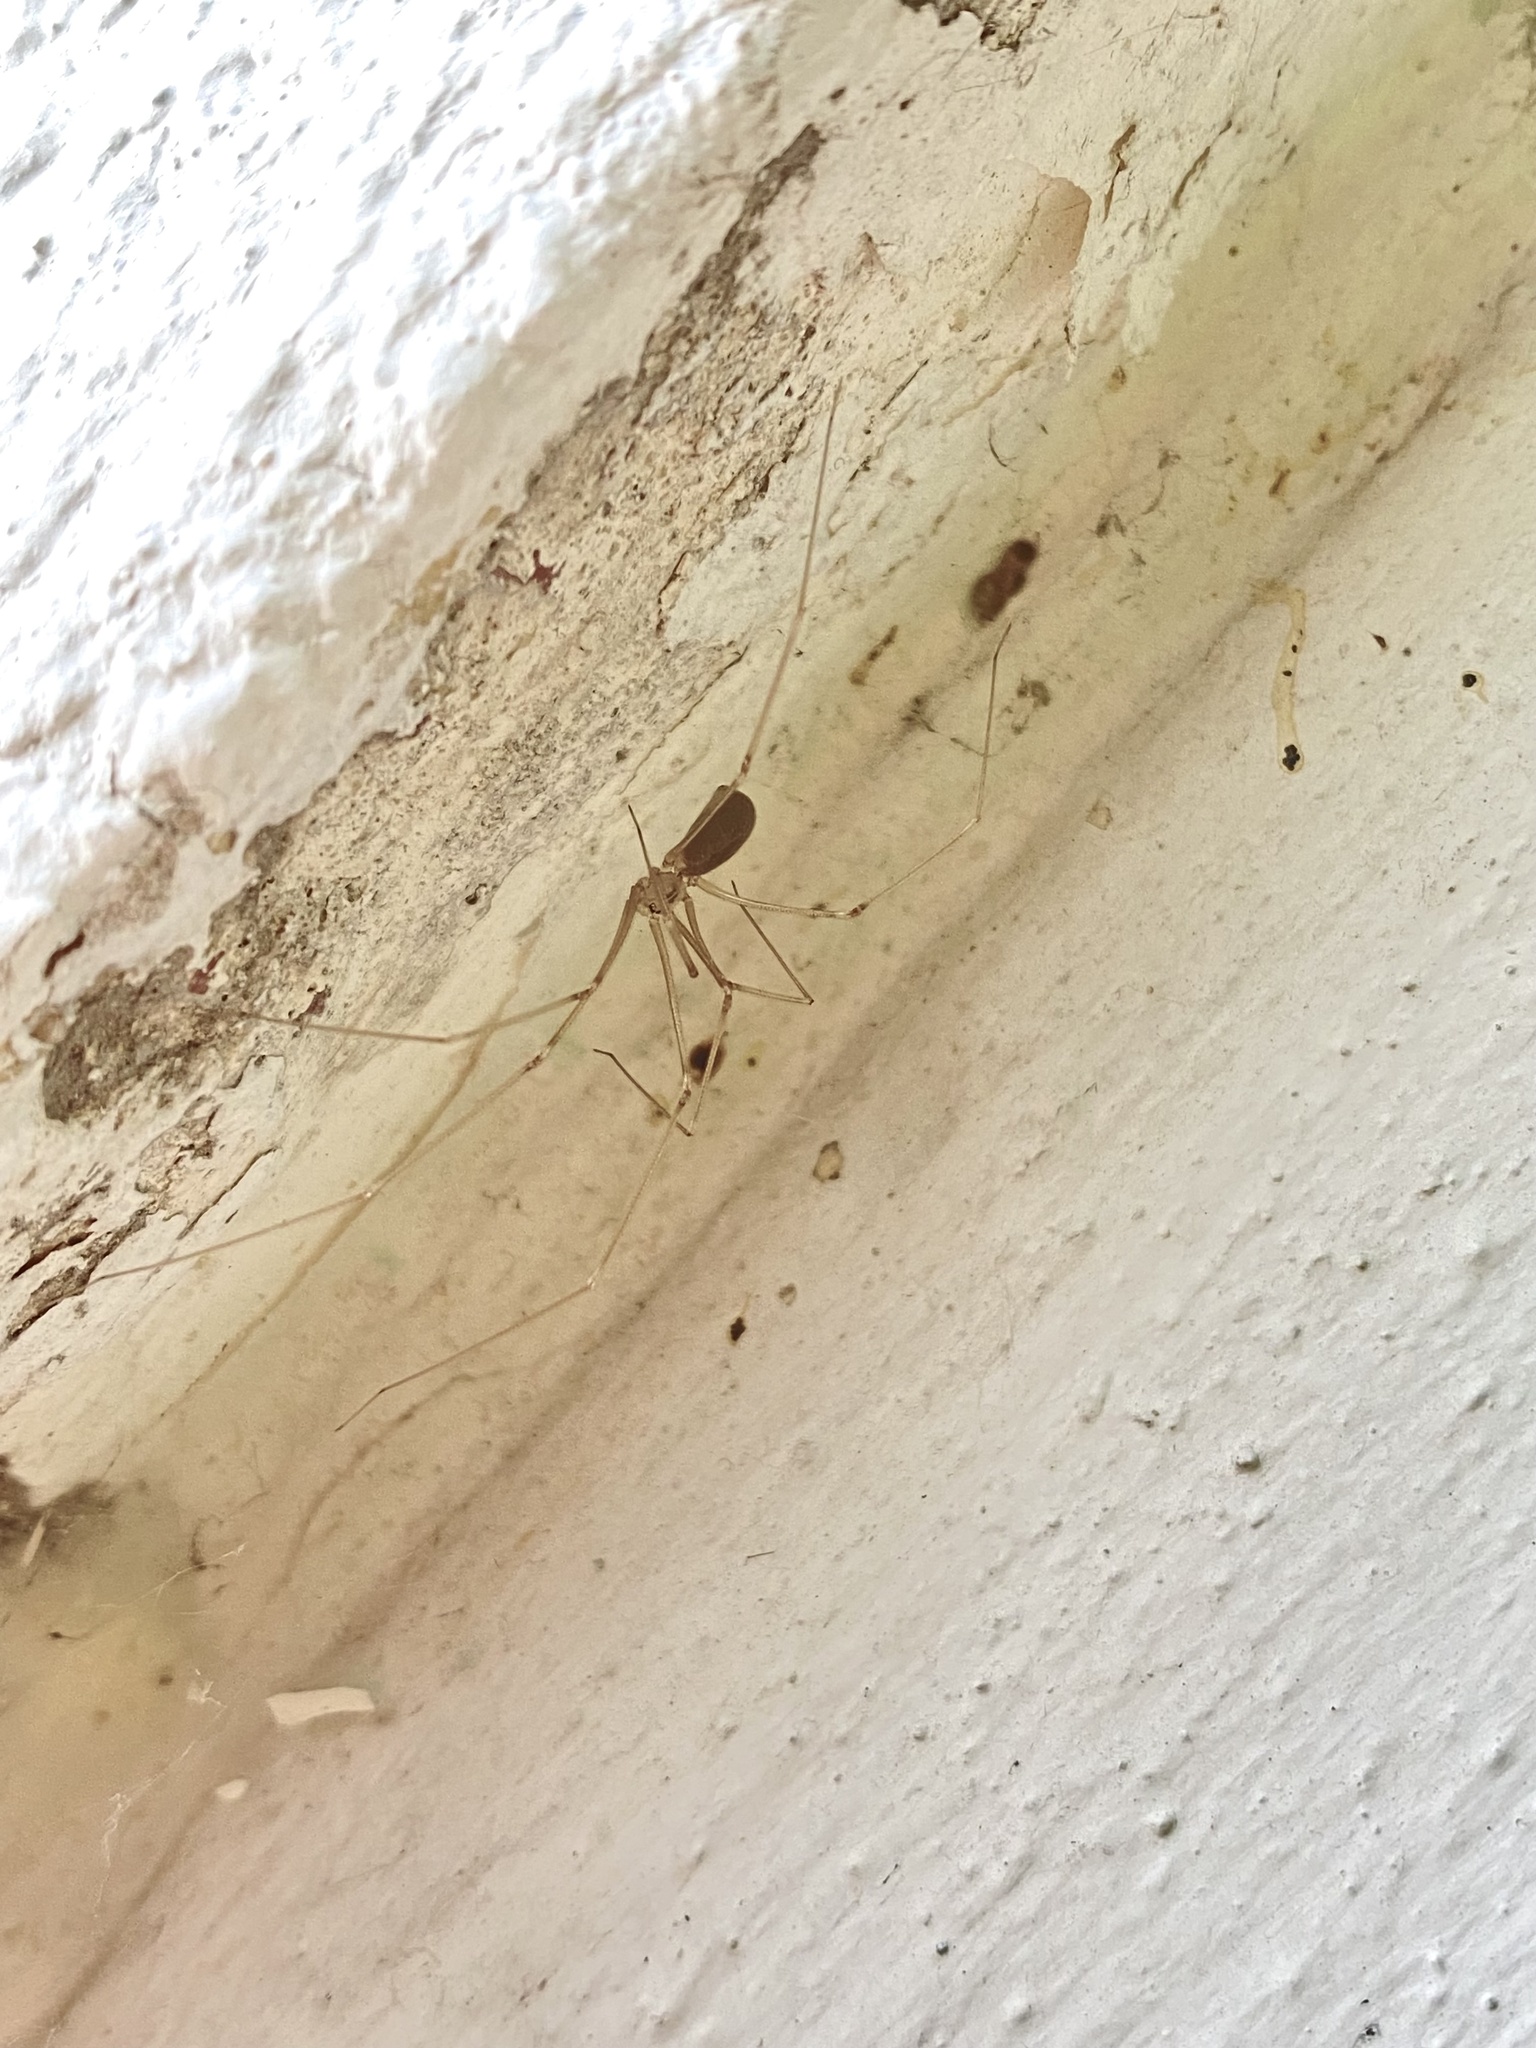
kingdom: Animalia
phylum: Arthropoda
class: Arachnida
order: Araneae
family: Pholcidae
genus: Pholcus
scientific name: Pholcus
